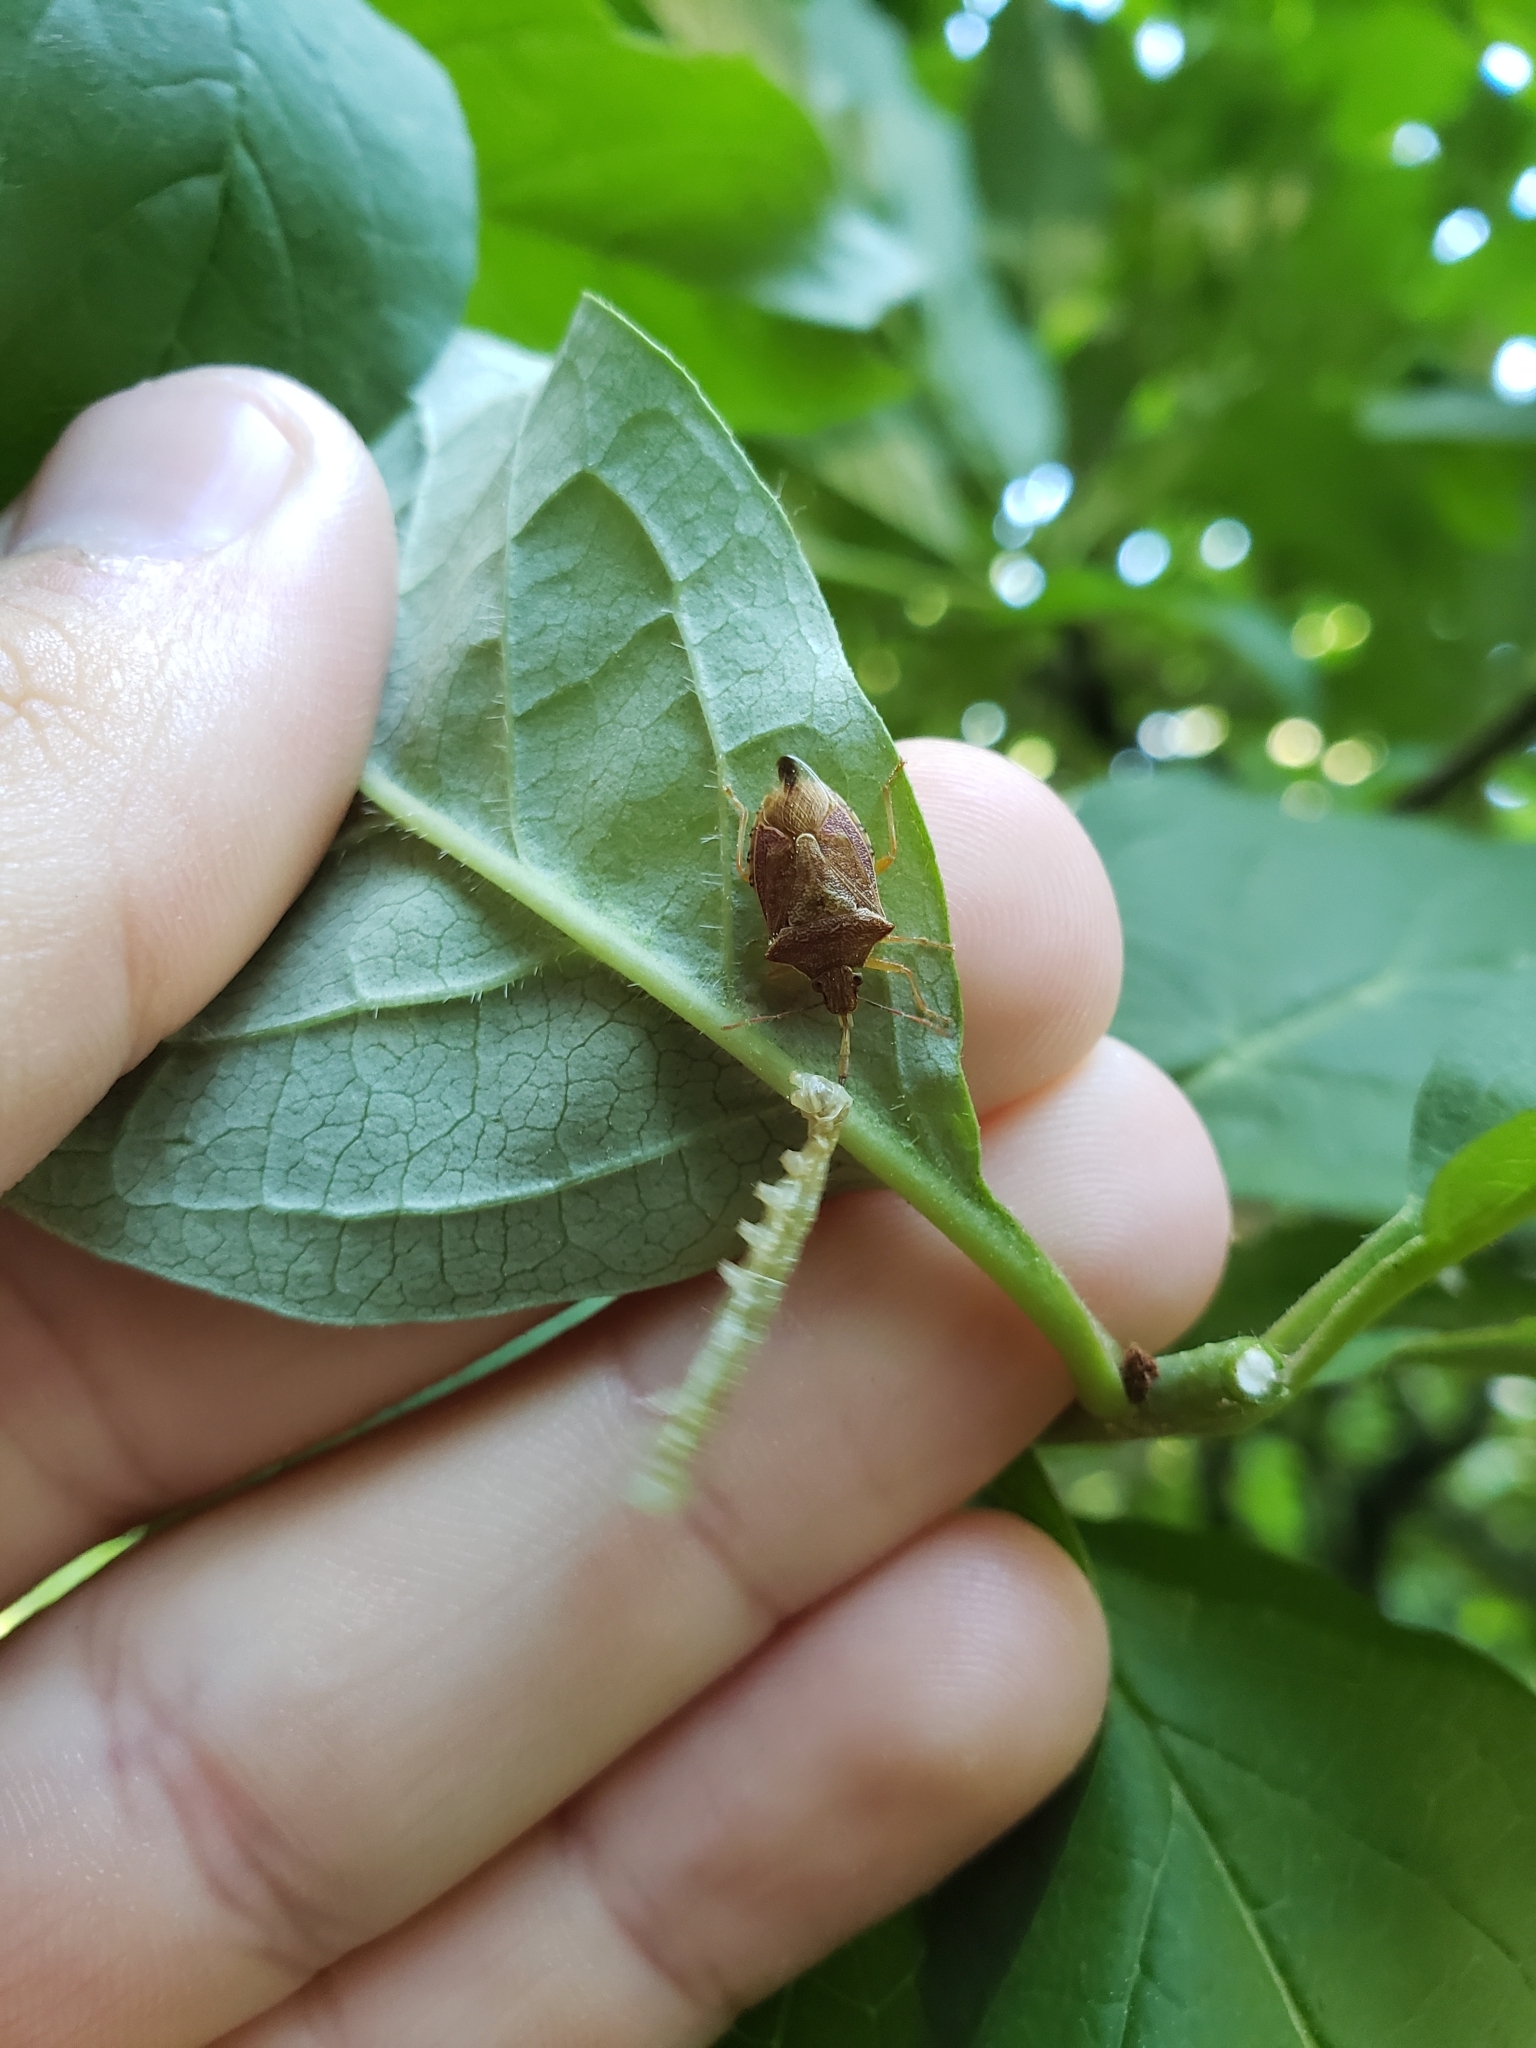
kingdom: Animalia
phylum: Arthropoda
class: Insecta
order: Hemiptera
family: Pentatomidae
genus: Podisus
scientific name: Podisus maculiventris
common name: Spined soldier bug
